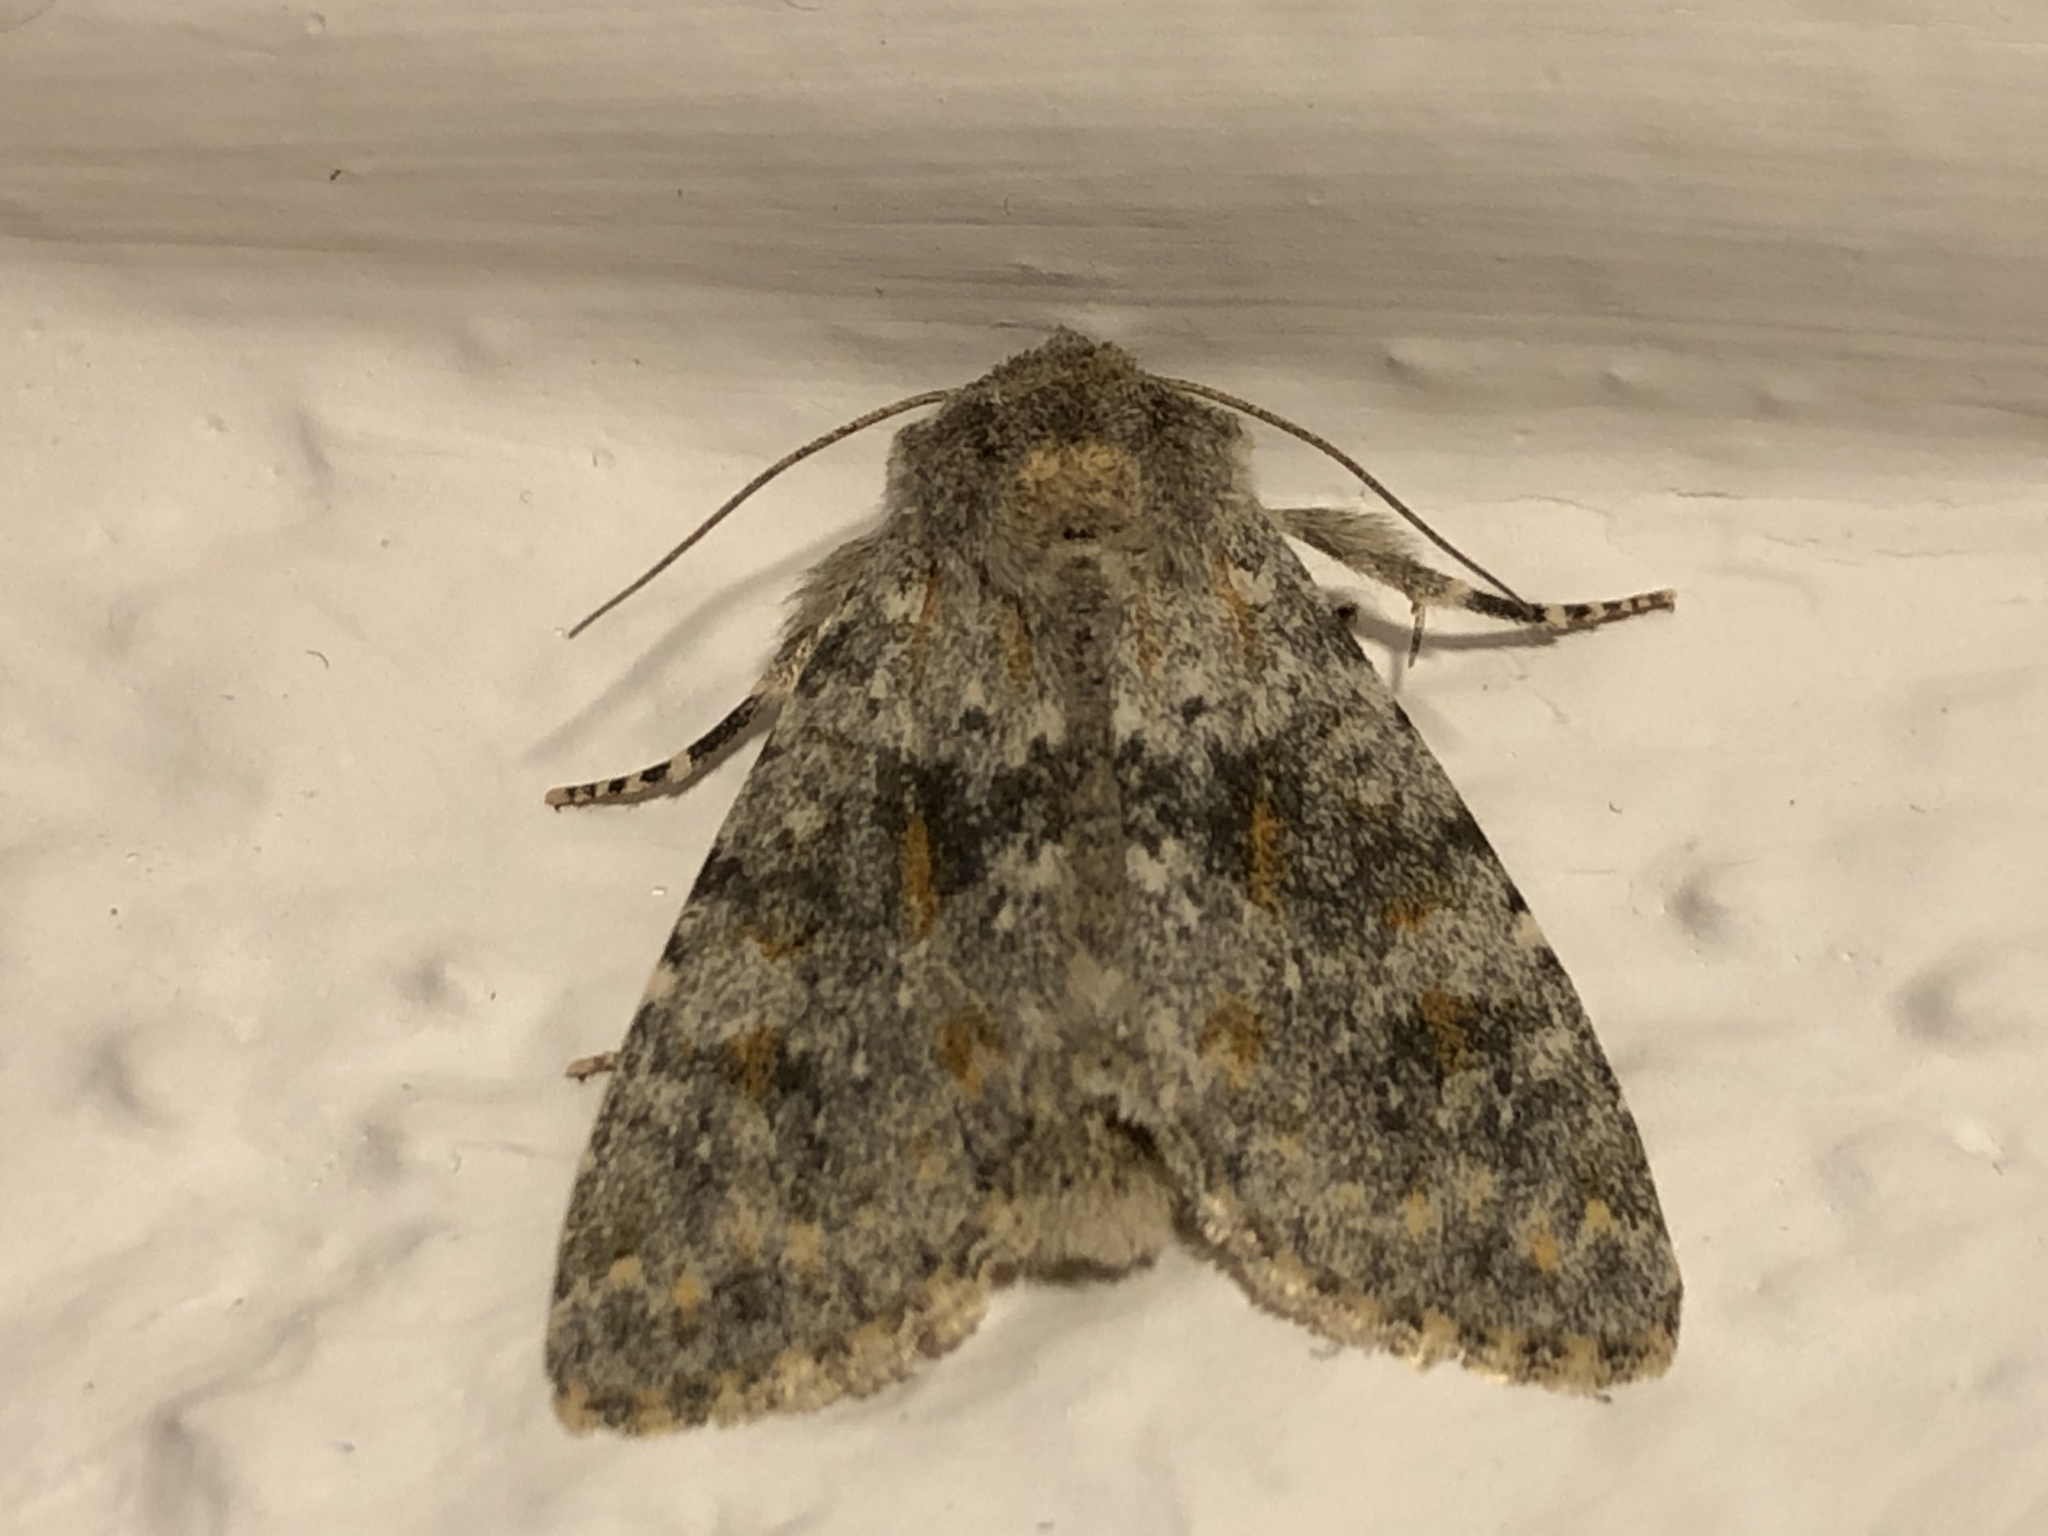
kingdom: Animalia
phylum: Arthropoda
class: Insecta
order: Lepidoptera
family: Noctuidae
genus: Polymixis
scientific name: Polymixis rufocincta
